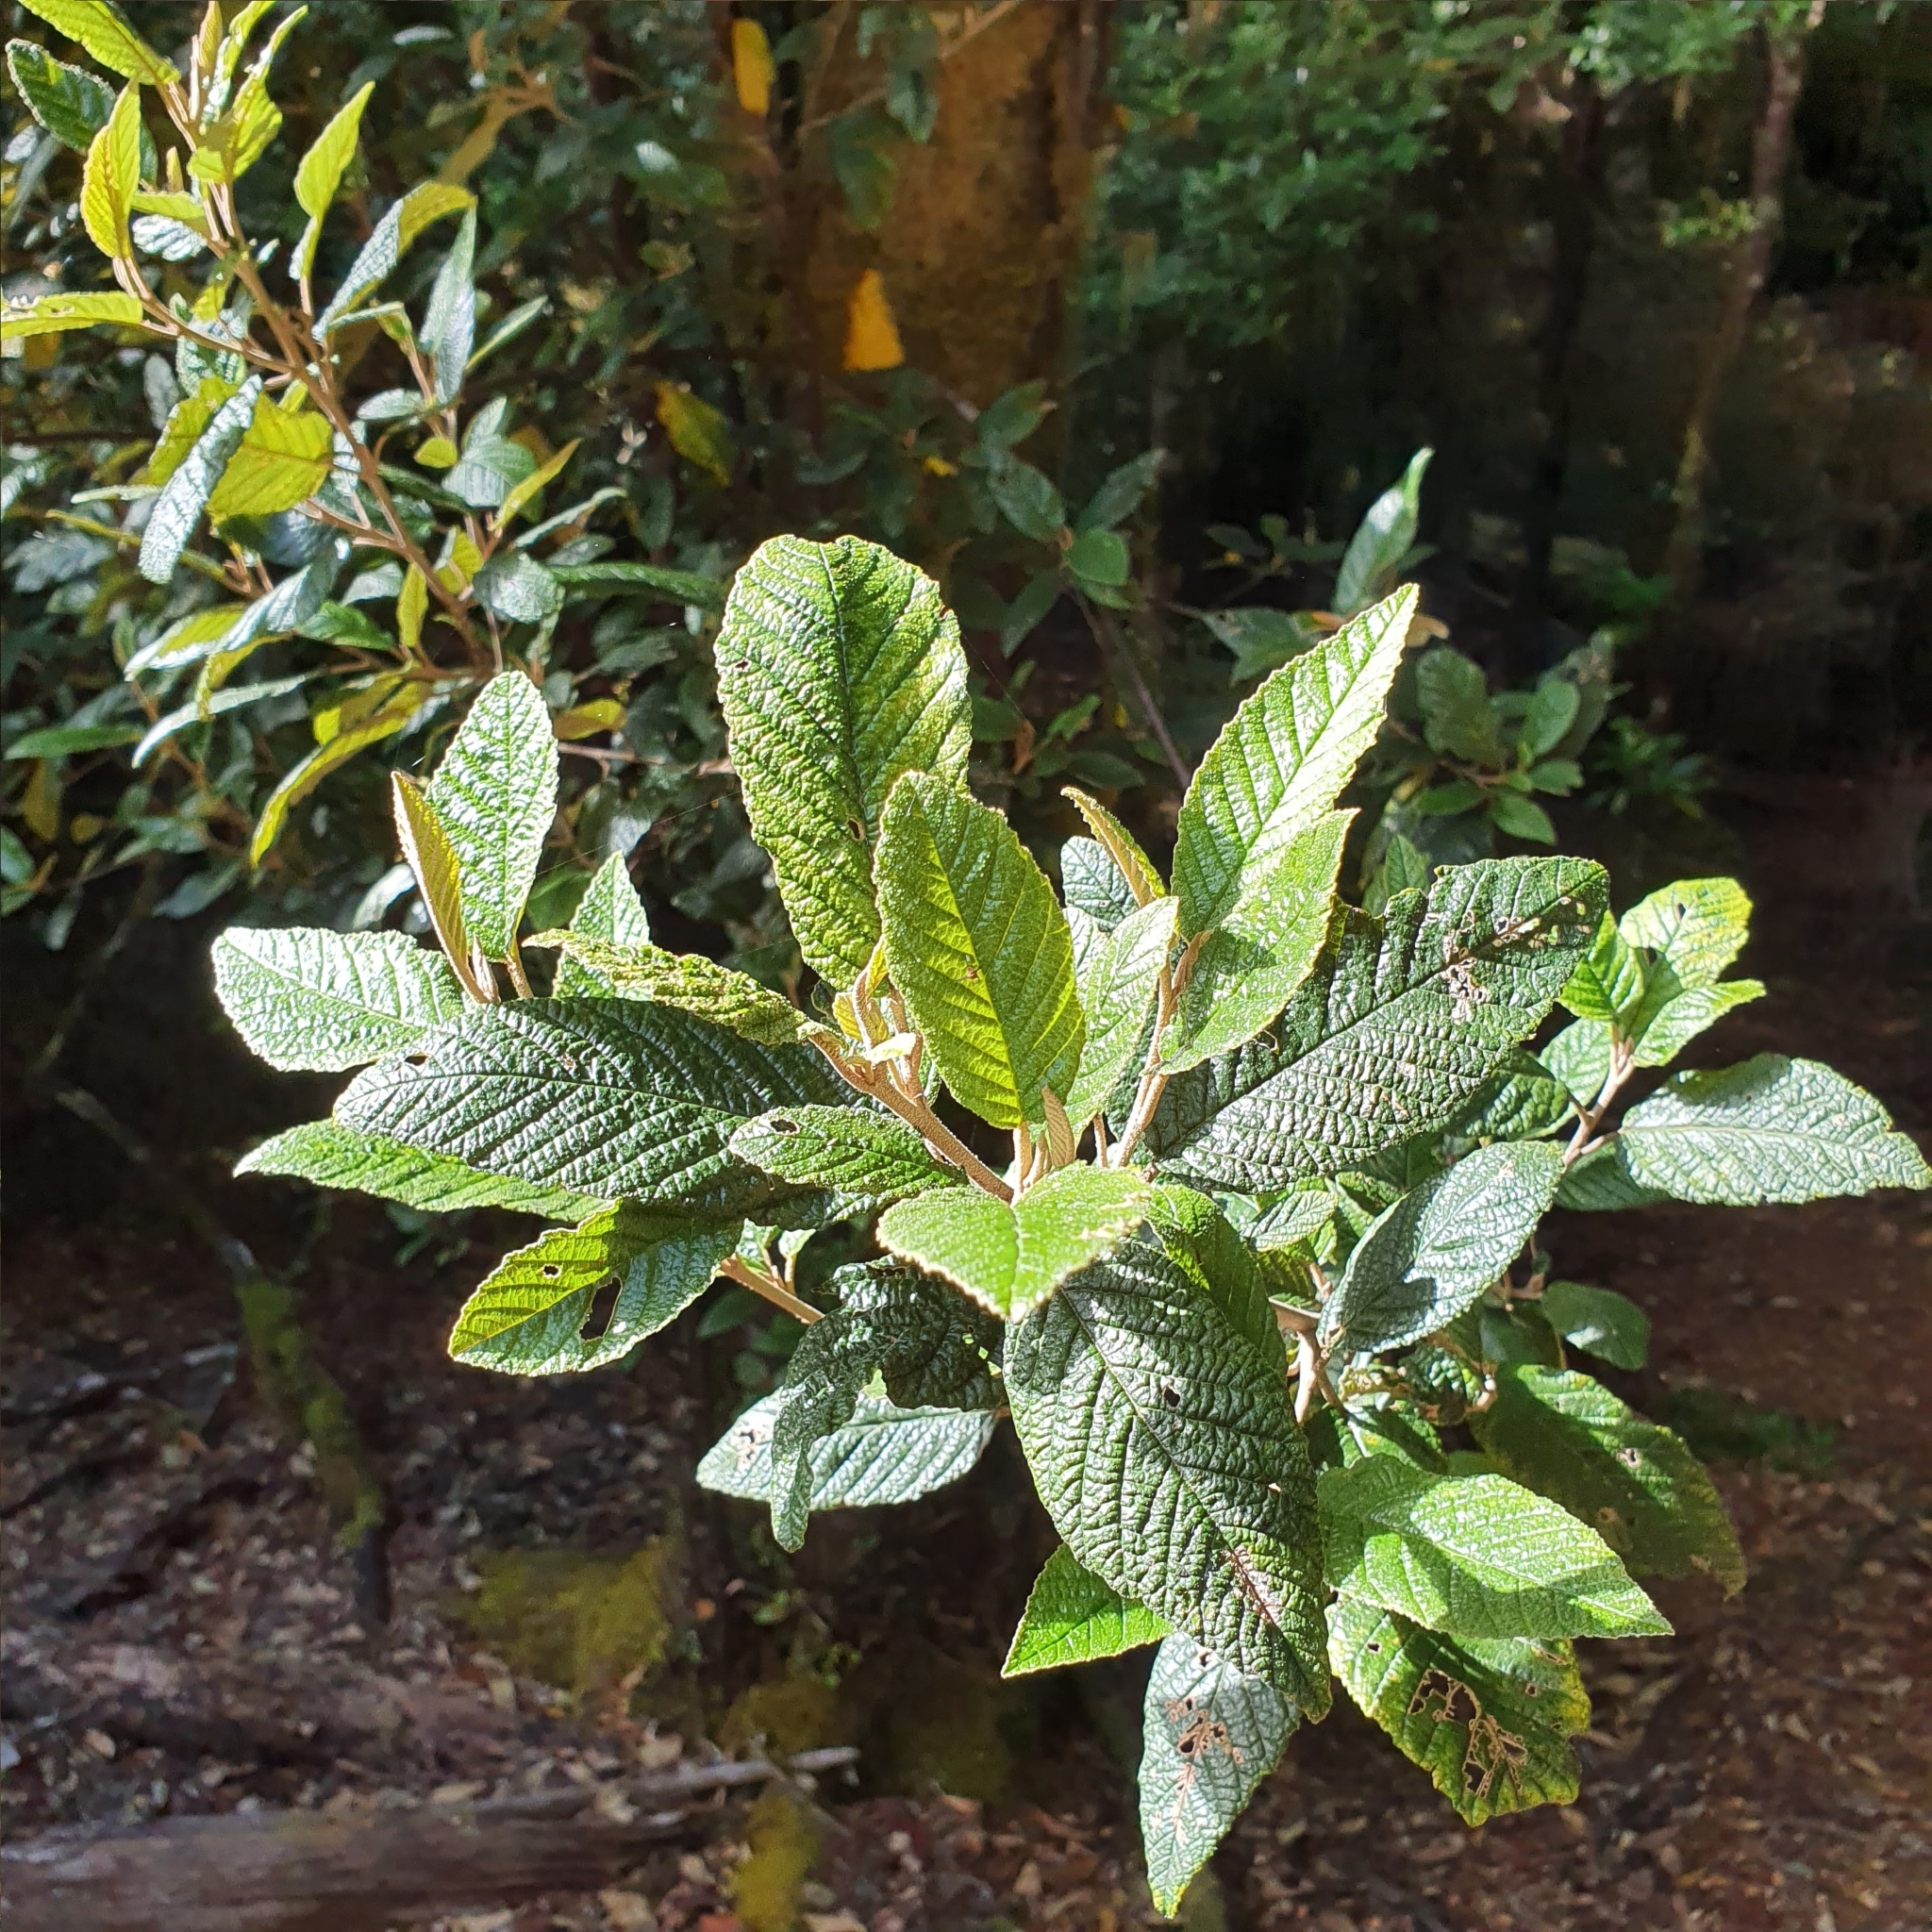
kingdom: Plantae
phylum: Tracheophyta
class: Magnoliopsida
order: Rosales
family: Rhamnaceae
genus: Pomaderris
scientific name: Pomaderris apetala
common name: Hazel pomaderris
